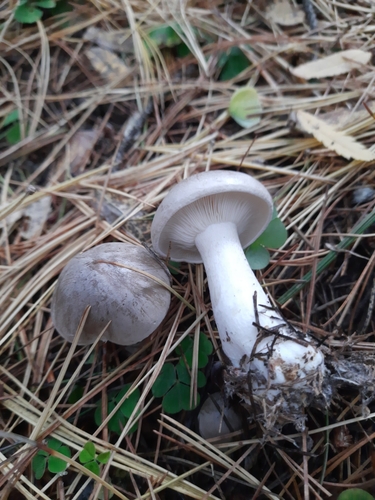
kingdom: Fungi
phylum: Basidiomycota
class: Agaricomycetes
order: Agaricales
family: Tricholomataceae
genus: Clitocybe
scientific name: Clitocybe nebularis
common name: Clouded agaric
